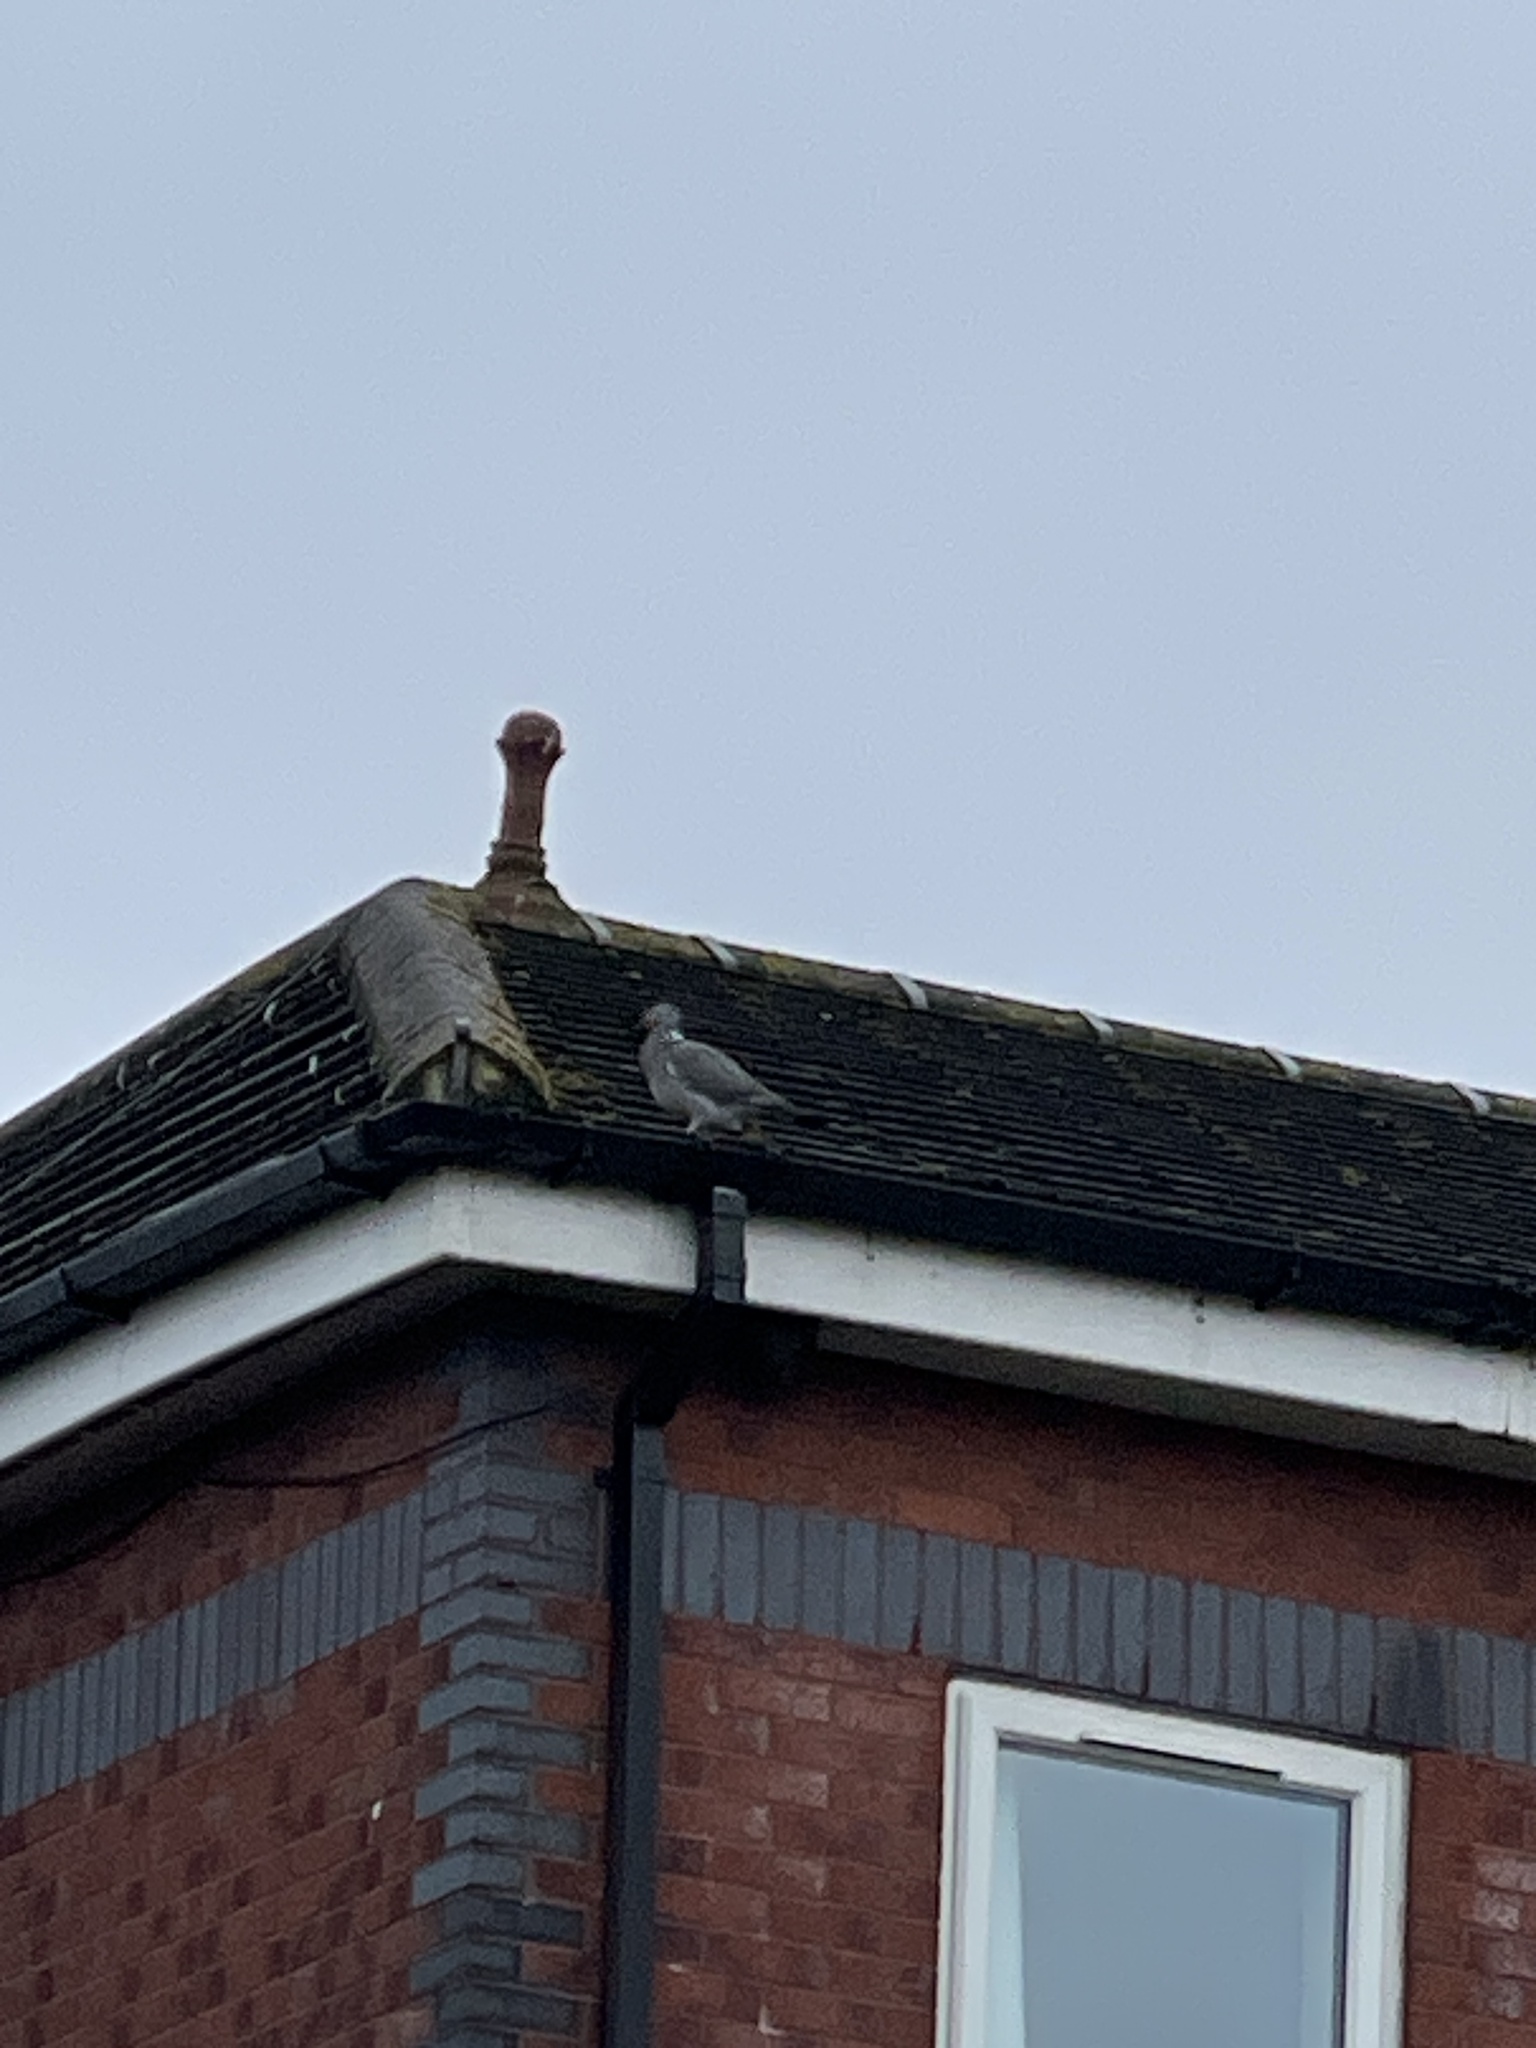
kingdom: Animalia
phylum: Chordata
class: Aves
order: Columbiformes
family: Columbidae
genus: Columba
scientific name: Columba palumbus
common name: Common wood pigeon
